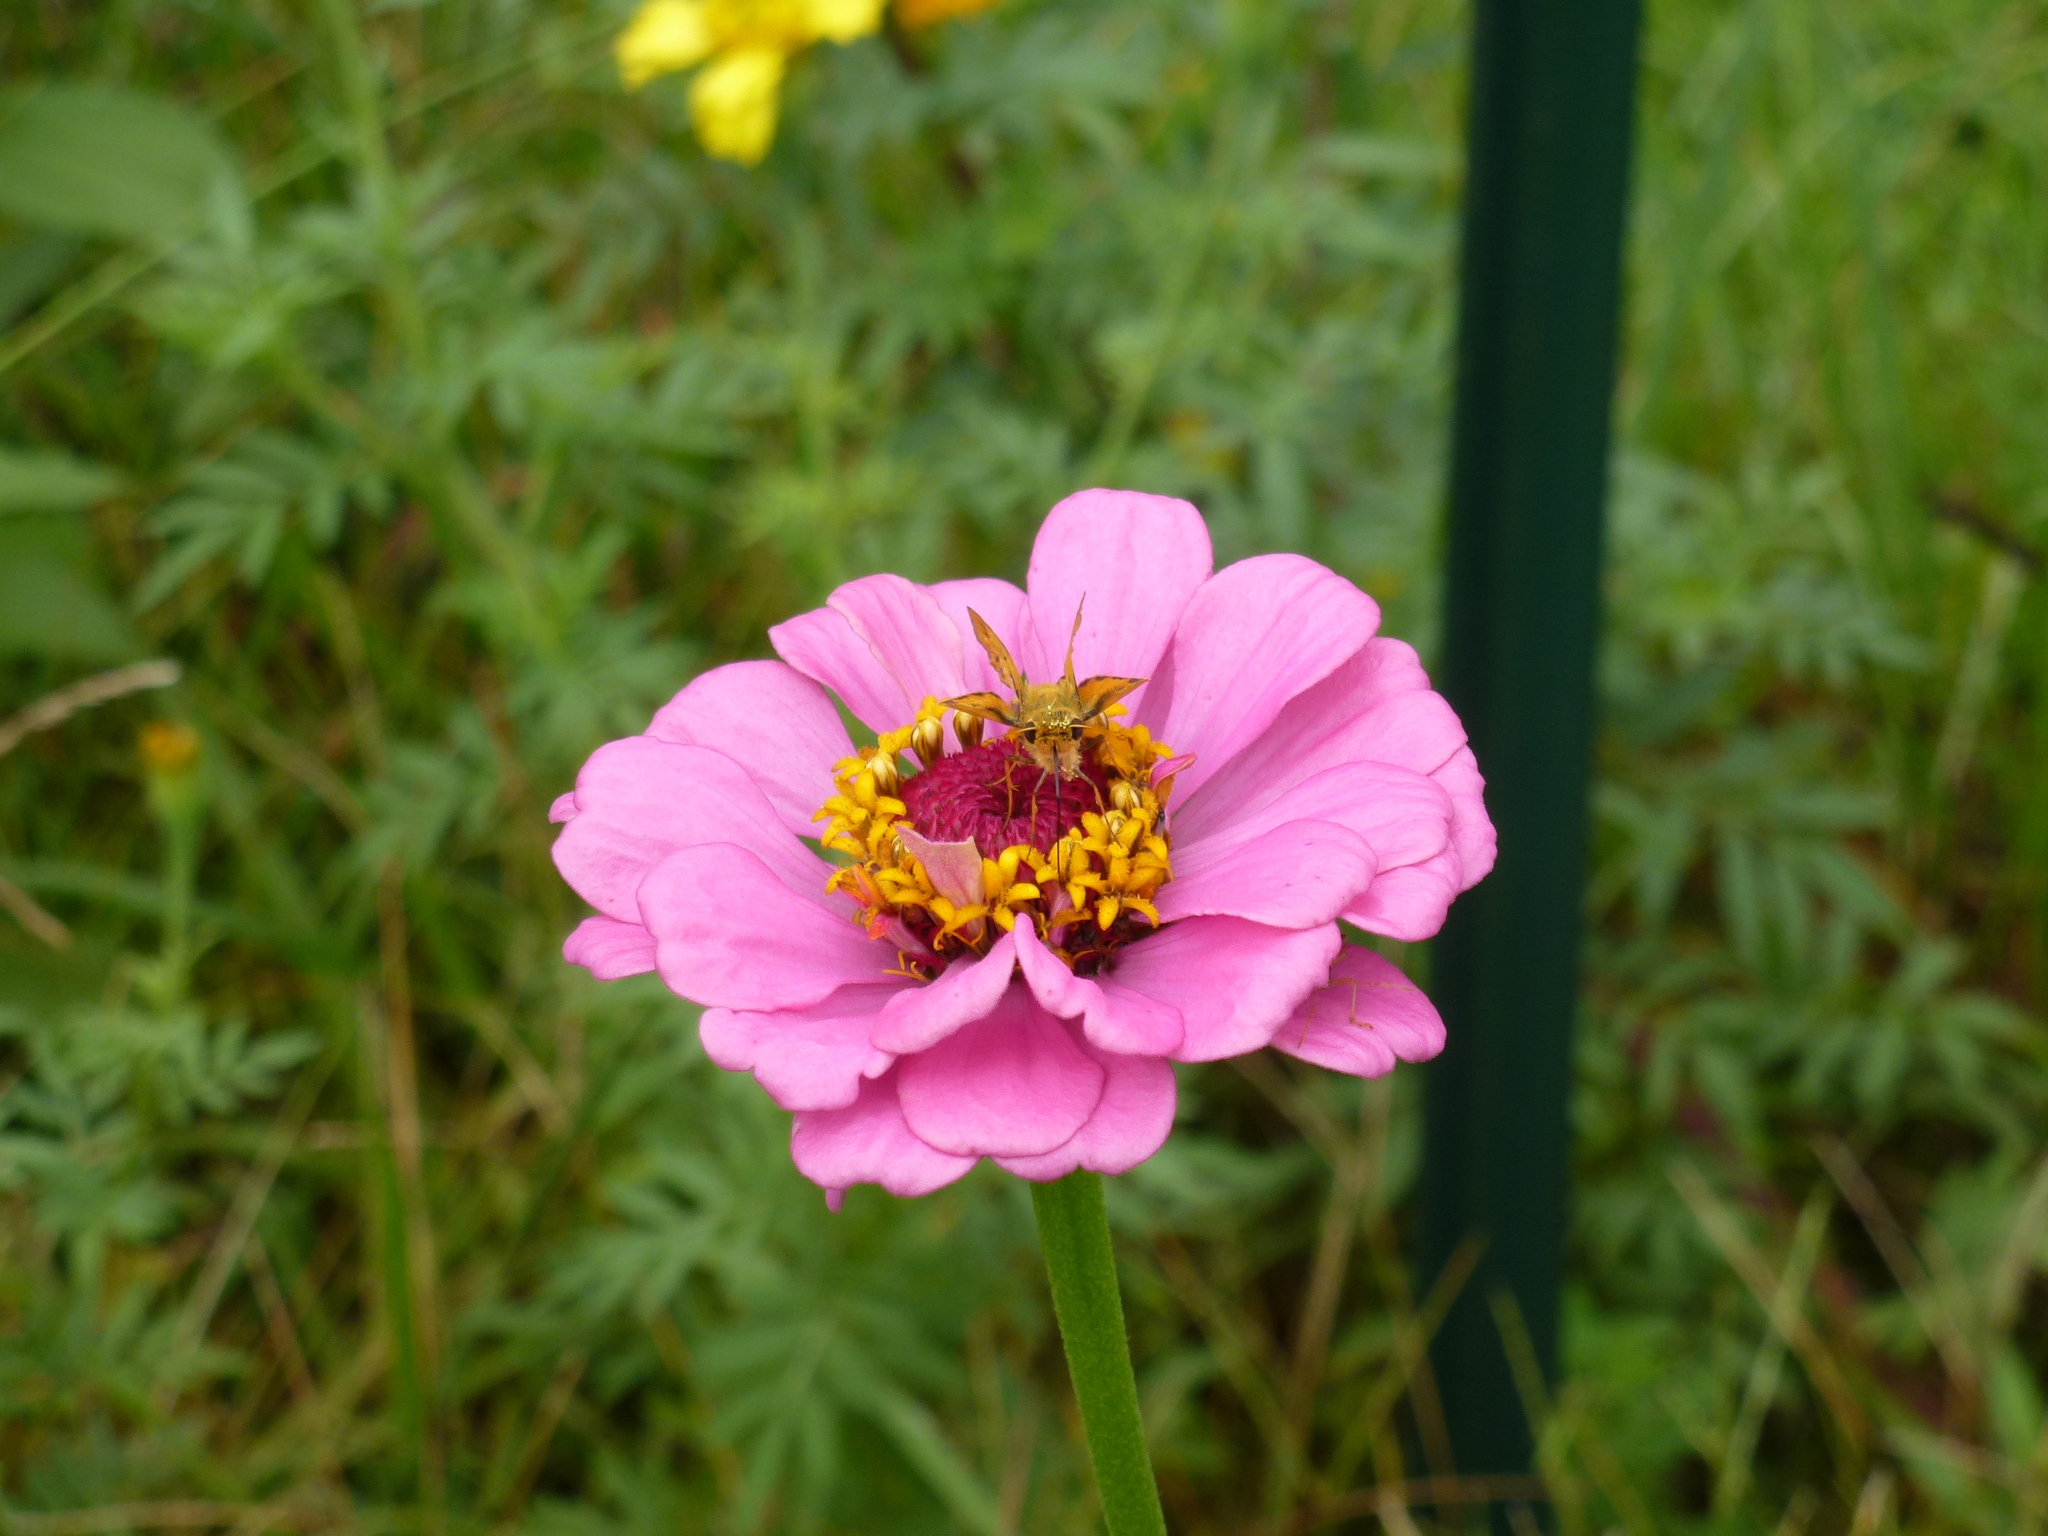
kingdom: Animalia
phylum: Arthropoda
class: Insecta
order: Lepidoptera
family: Hesperiidae
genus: Hylephila
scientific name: Hylephila phyleus
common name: Fiery skipper
